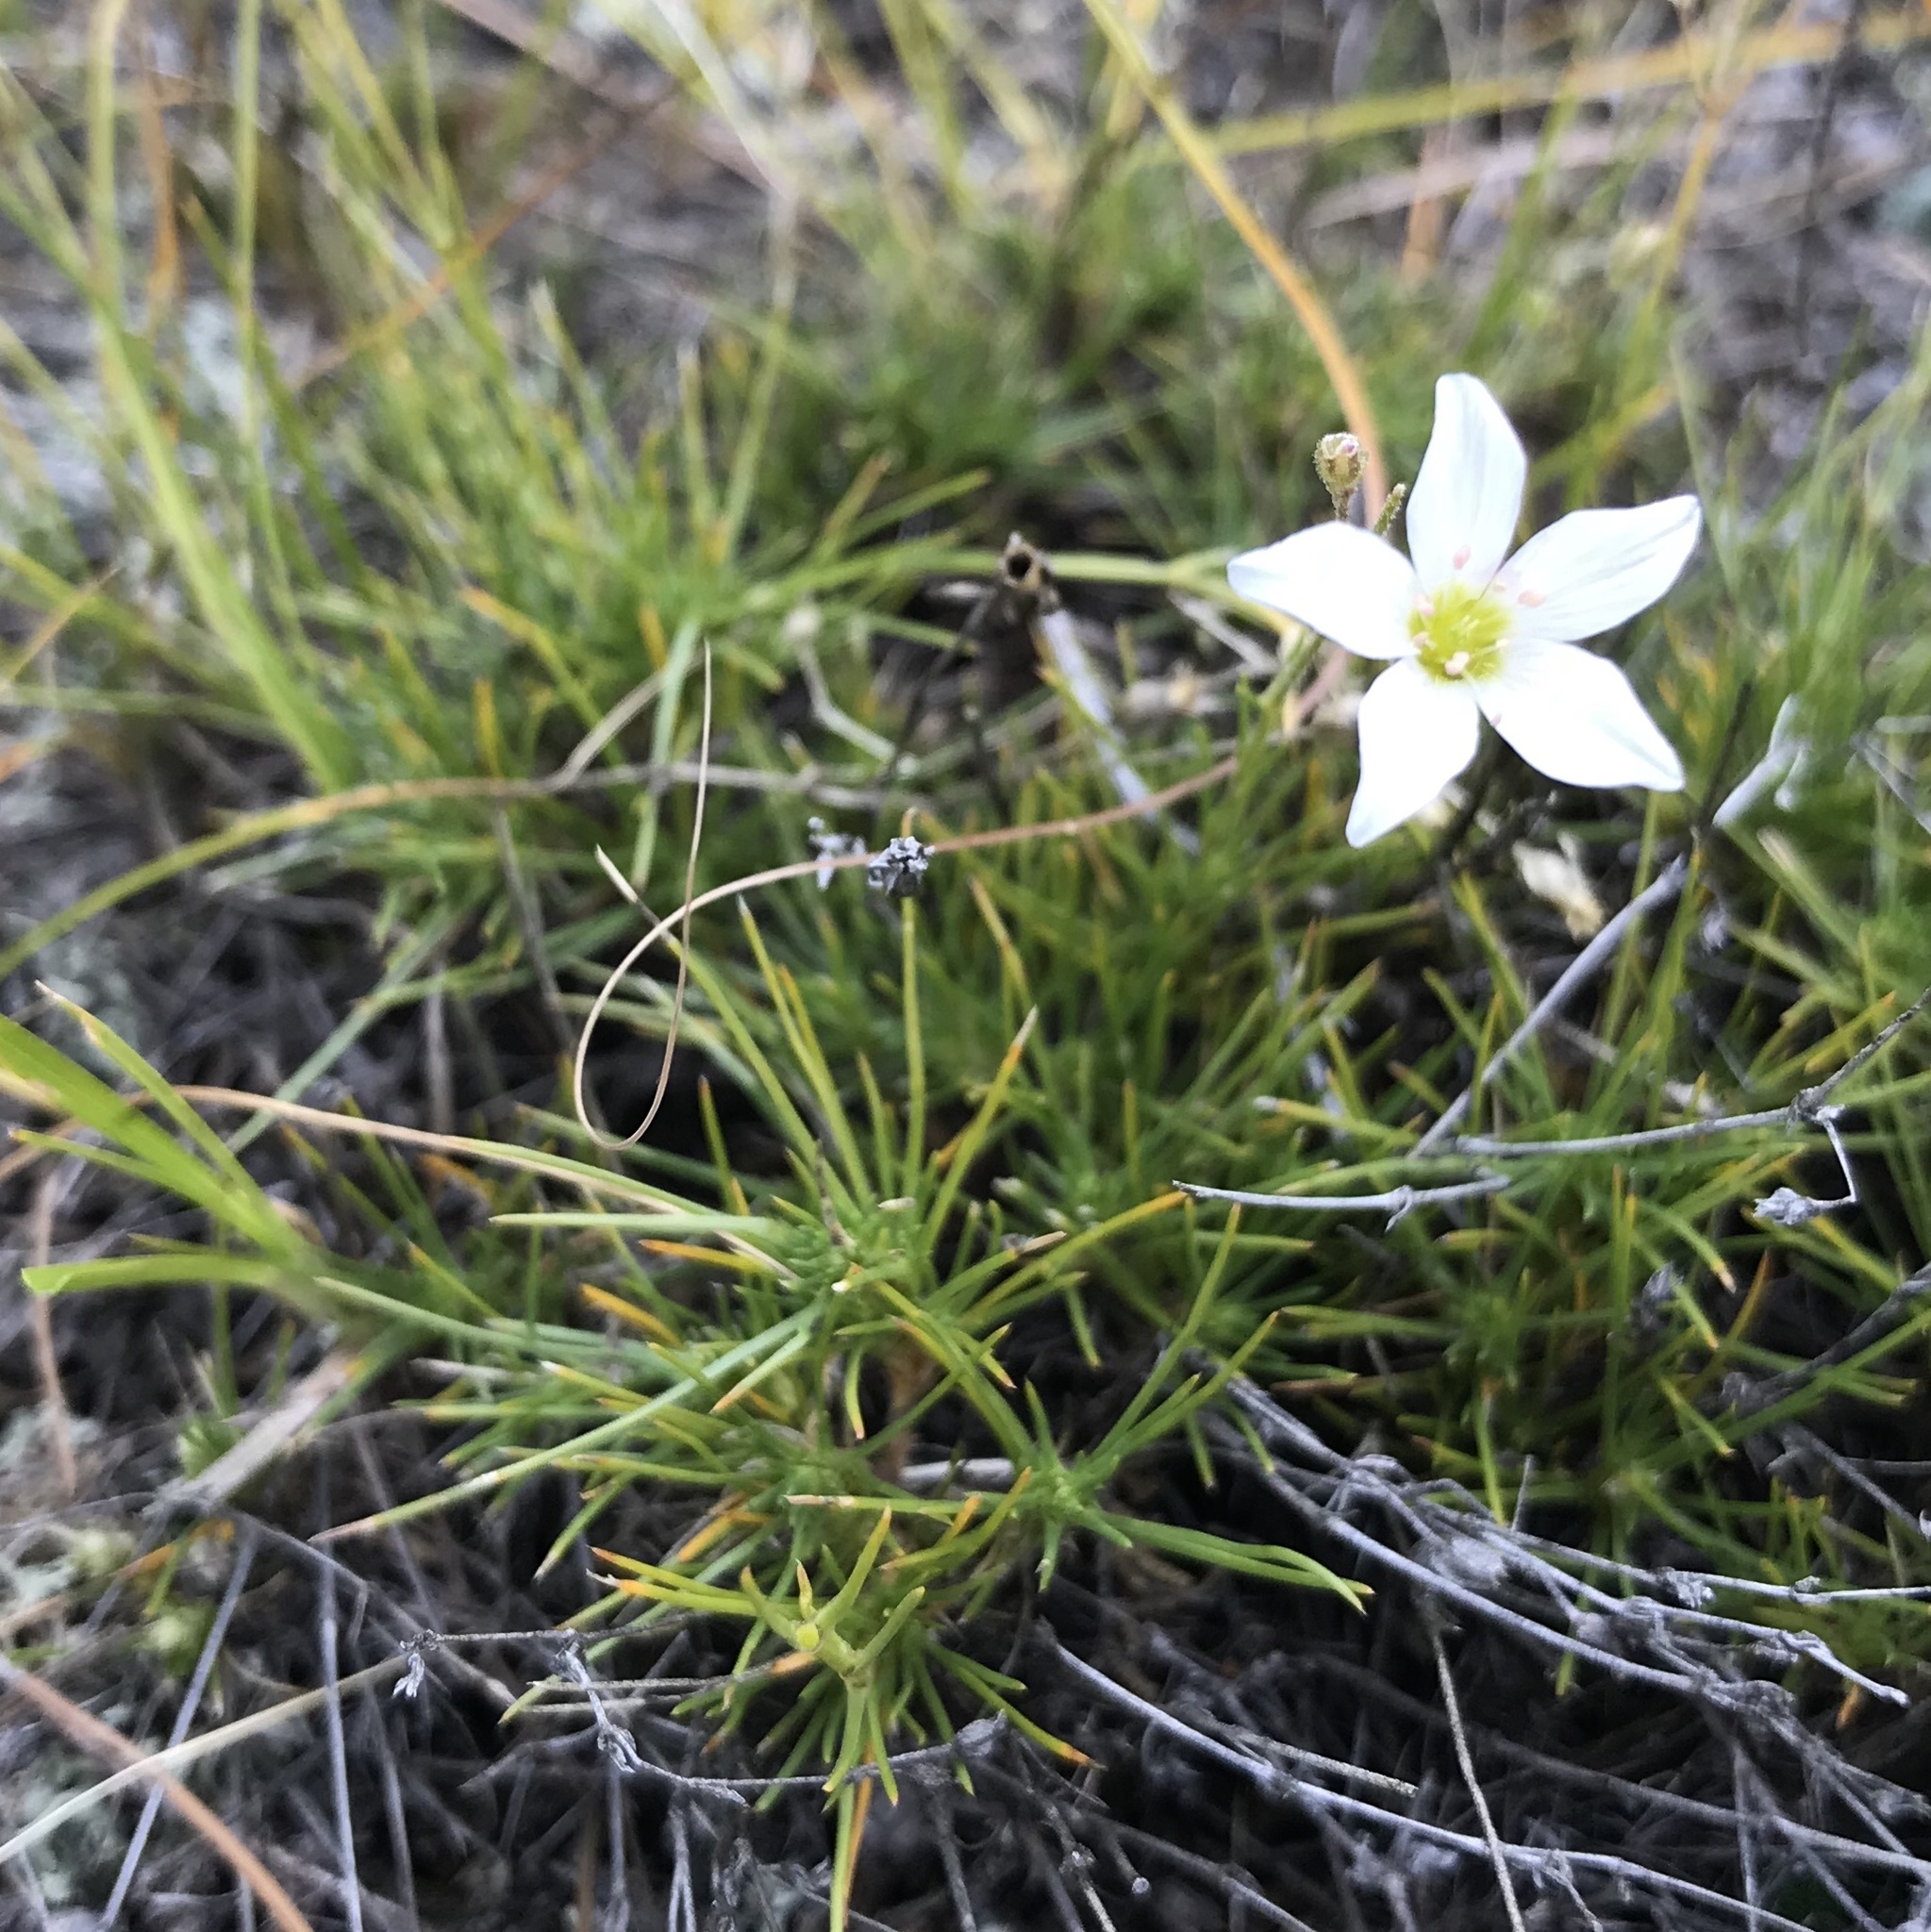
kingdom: Plantae
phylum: Tracheophyta
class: Magnoliopsida
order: Caryophyllales
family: Caryophyllaceae
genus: Eremogone
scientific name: Eremogone meyeri
